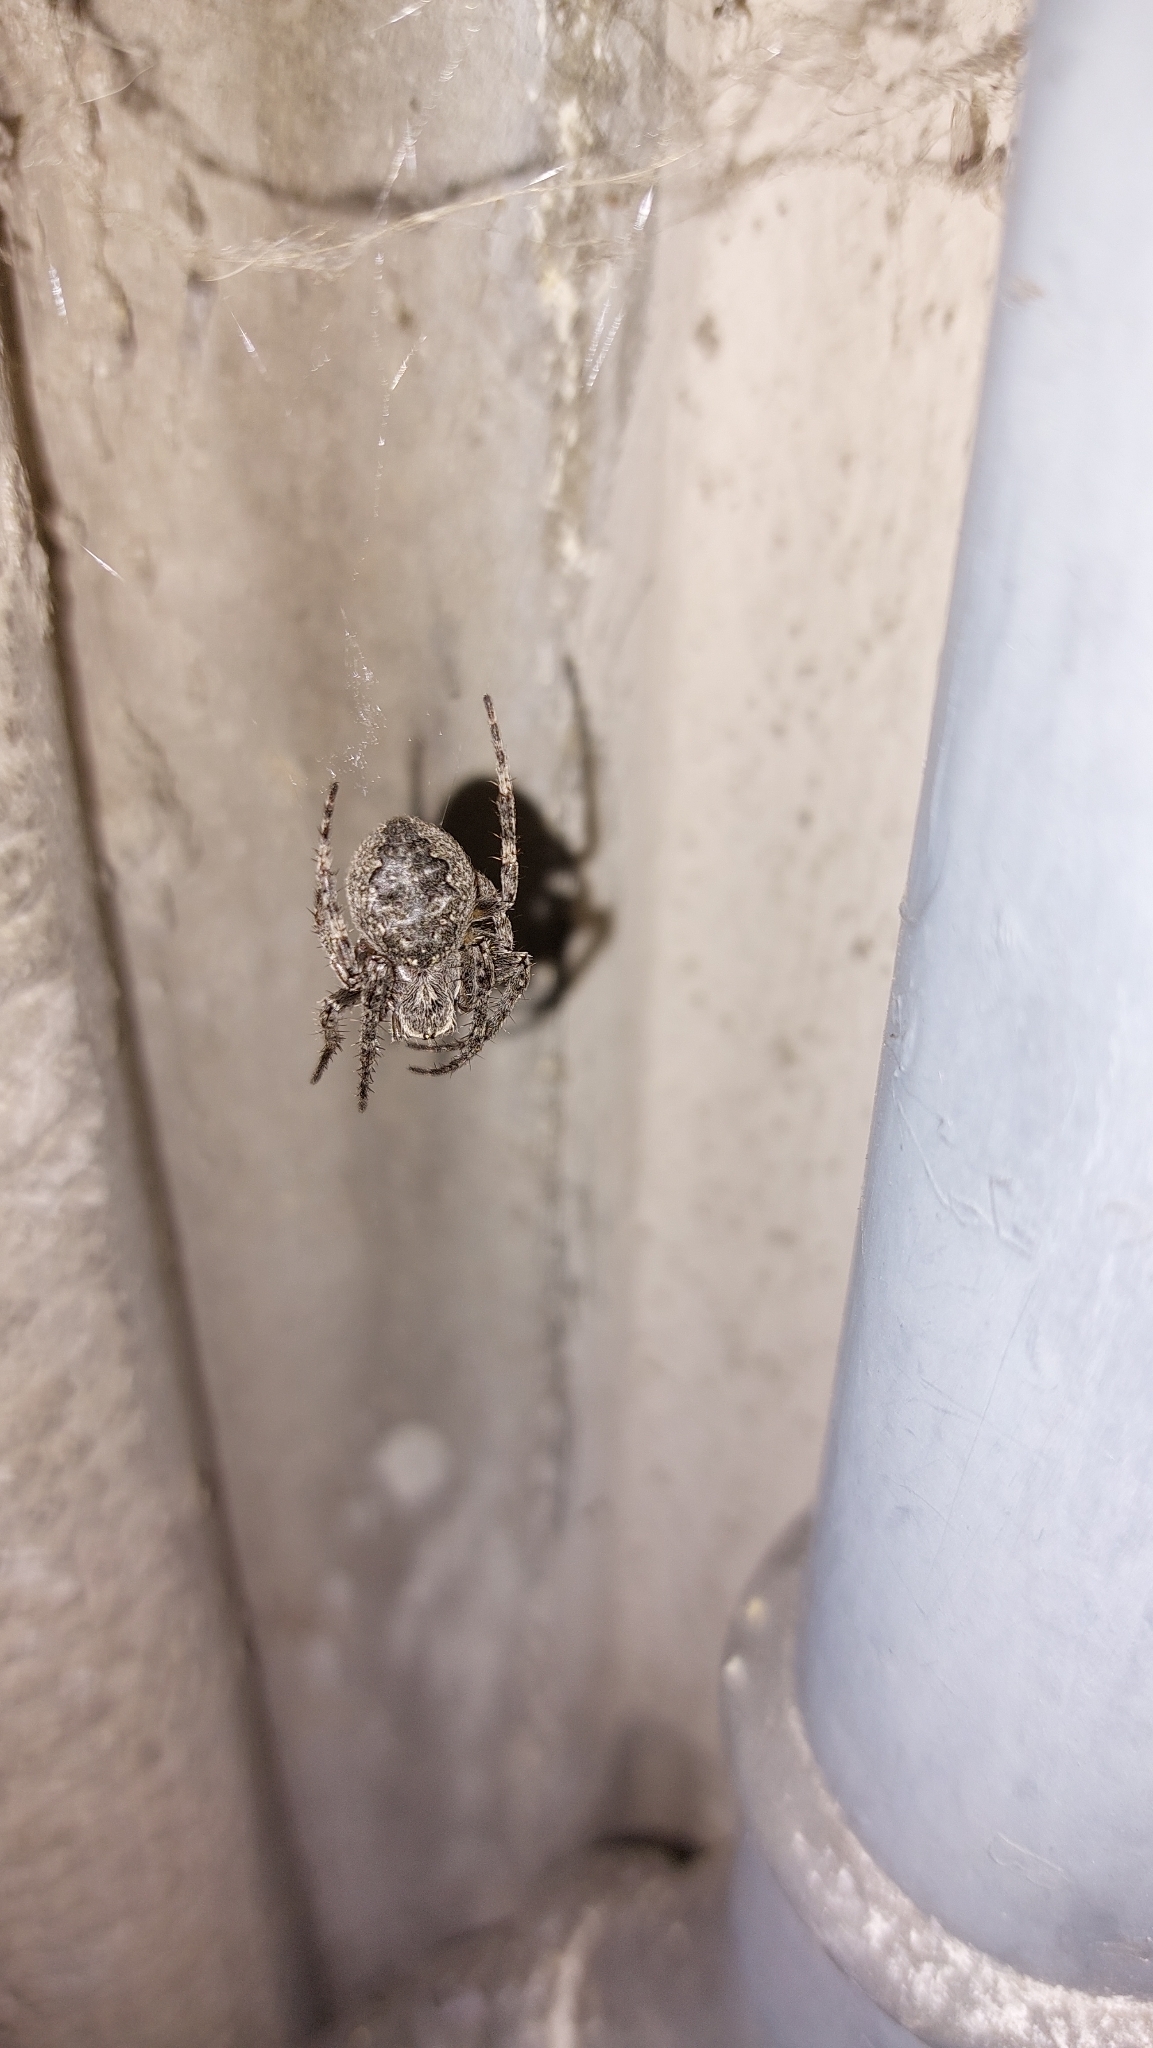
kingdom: Animalia
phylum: Arthropoda
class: Arachnida
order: Araneae
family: Araneidae
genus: Nuctenea
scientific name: Nuctenea umbratica
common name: Toad spider
